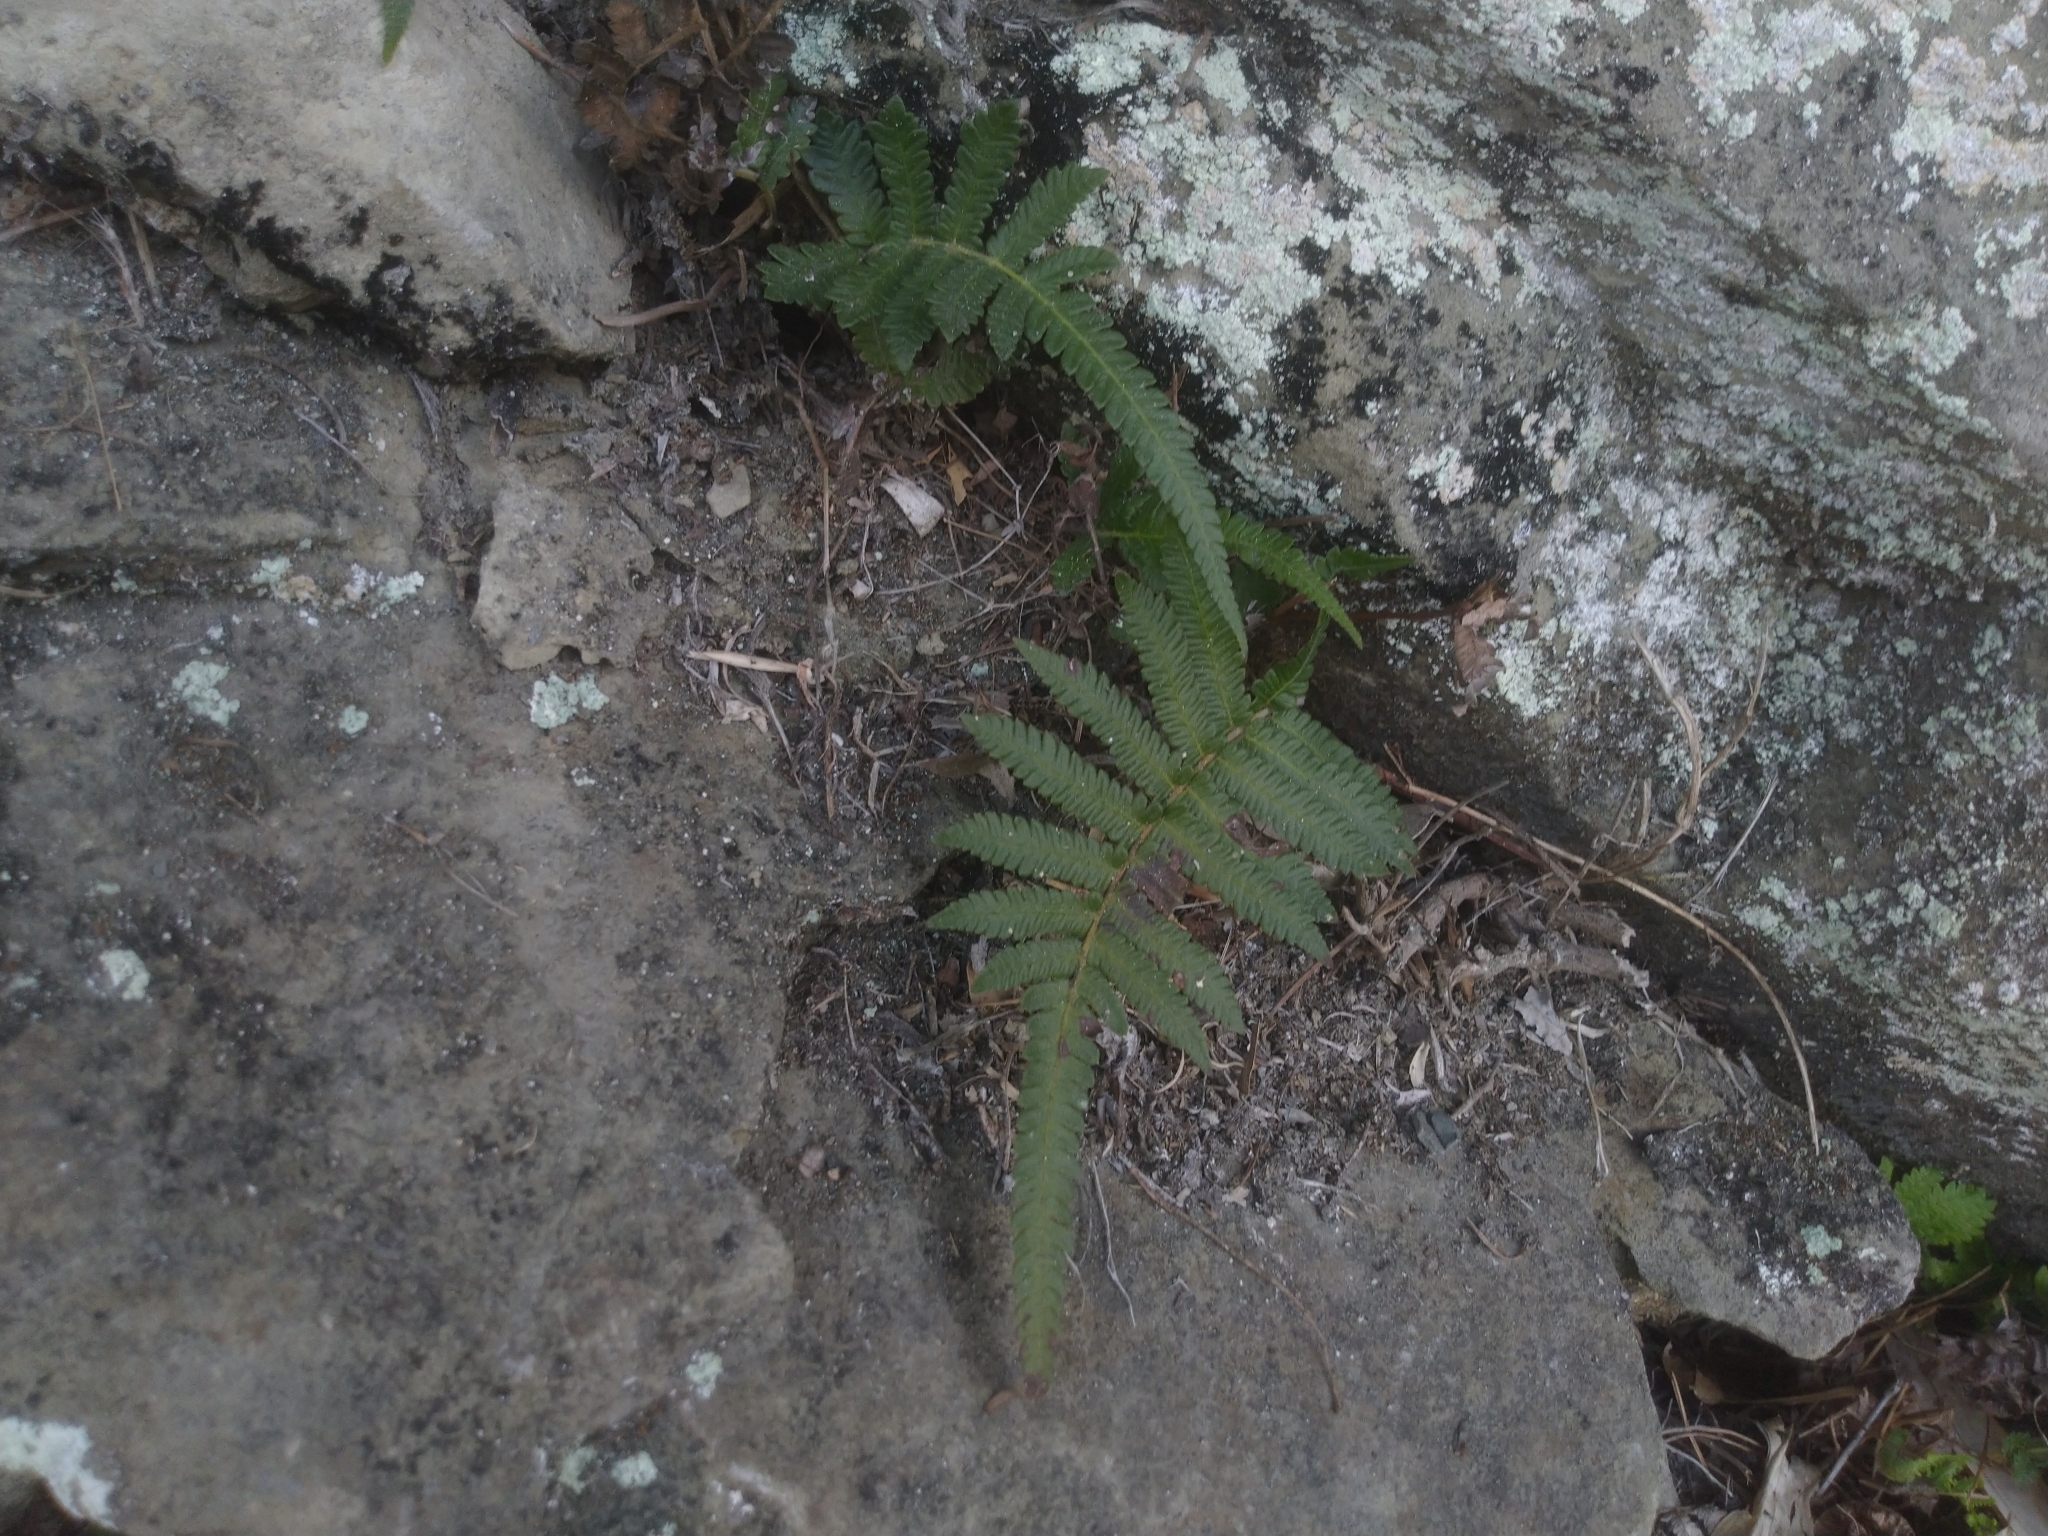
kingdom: Plantae
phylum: Tracheophyta
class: Polypodiopsida
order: Polypodiales
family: Thelypteridaceae
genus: Christella
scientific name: Christella acuminata
